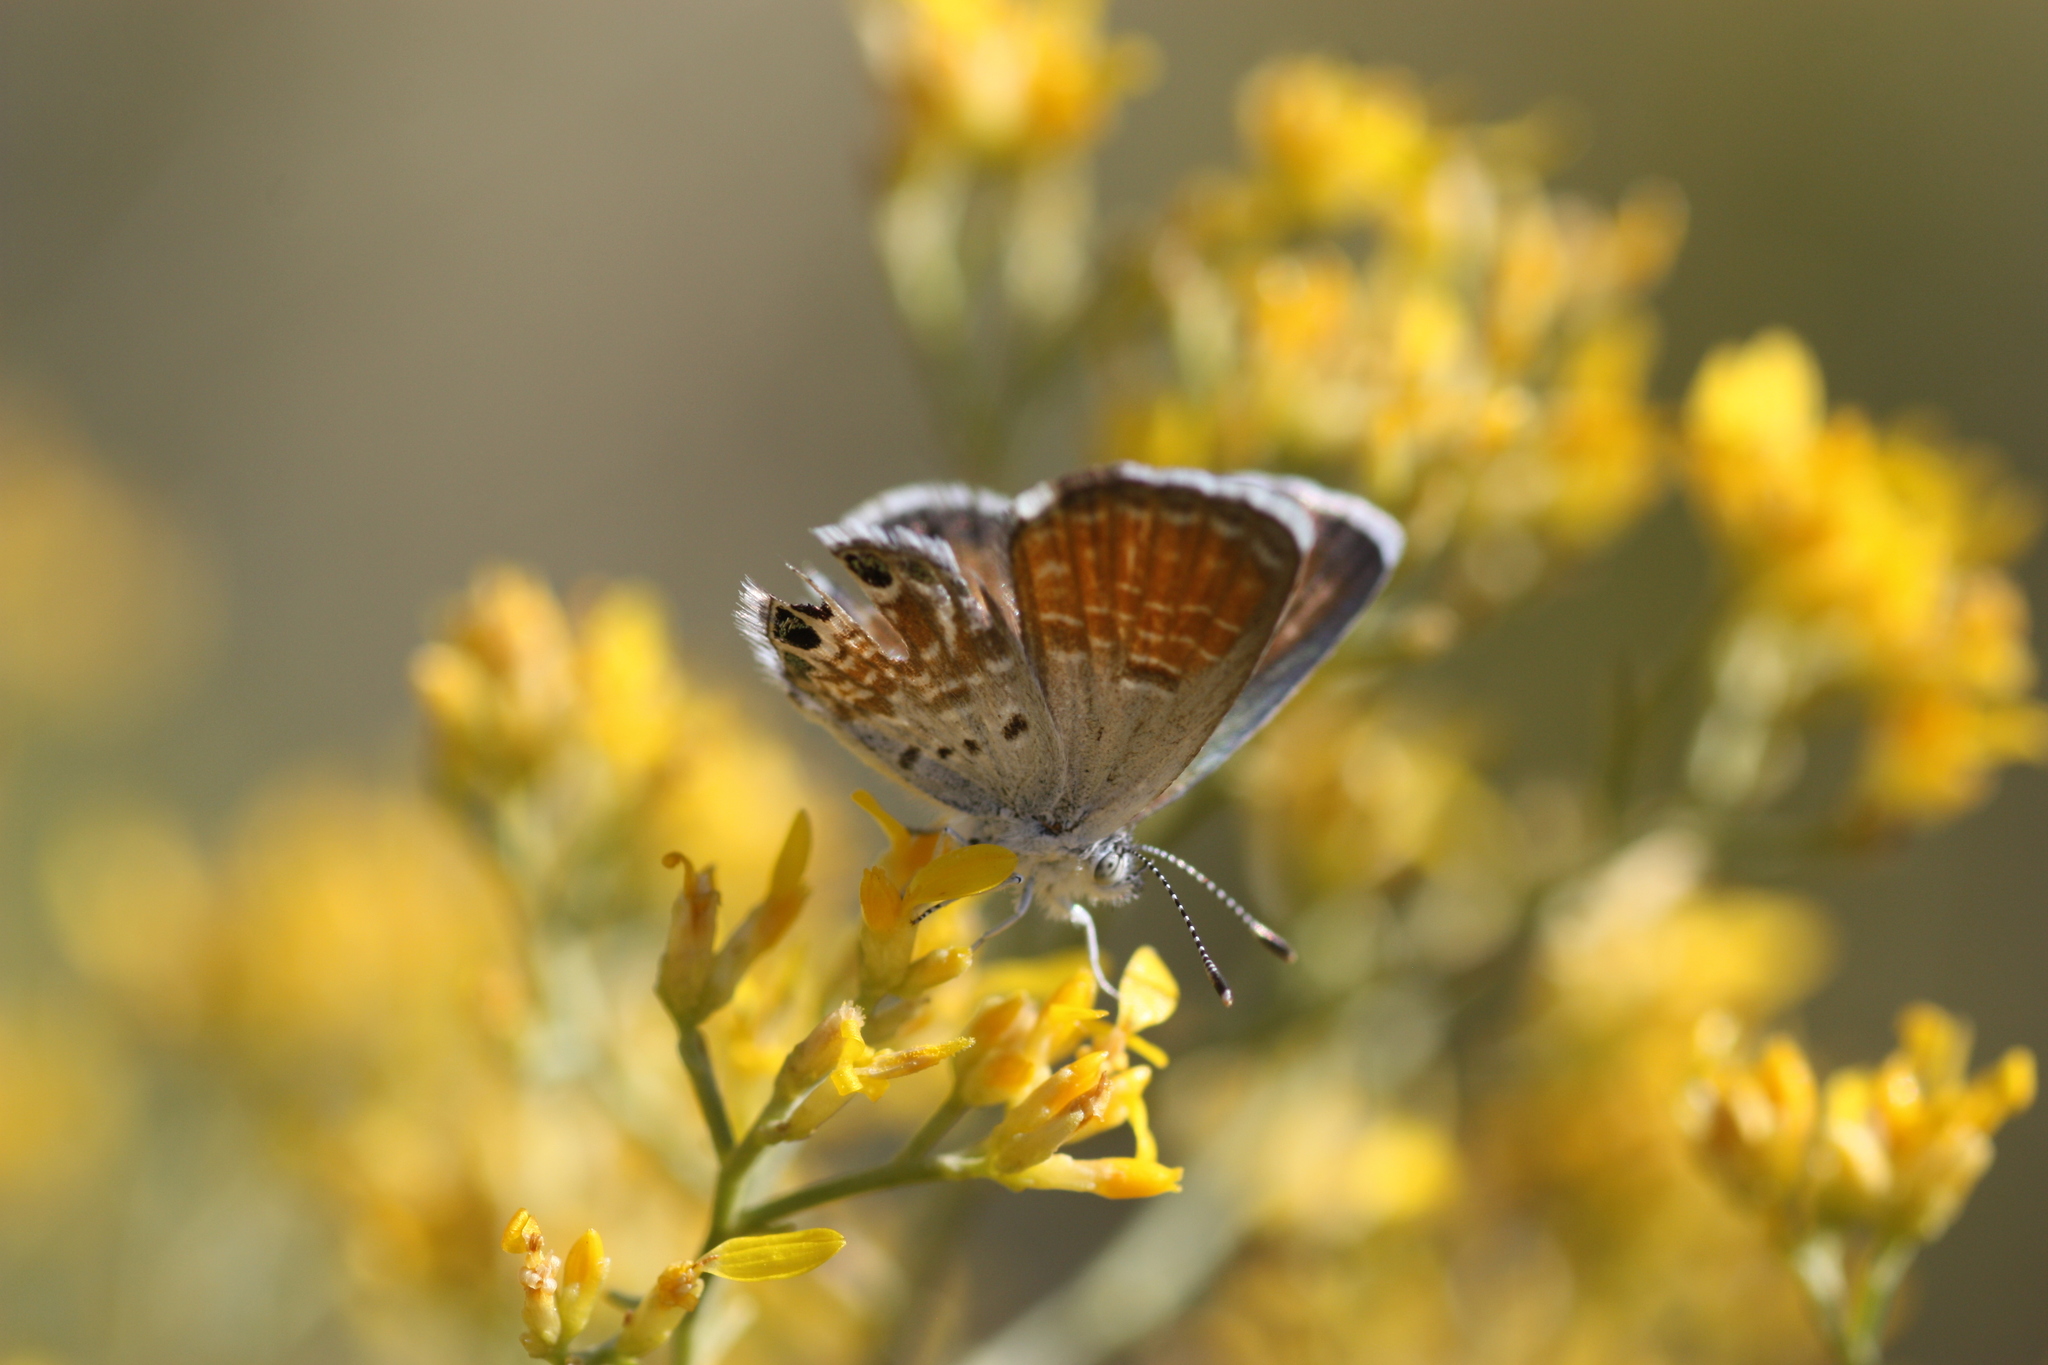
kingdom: Animalia
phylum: Arthropoda
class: Insecta
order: Lepidoptera
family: Lycaenidae
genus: Brephidium
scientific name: Brephidium exilis
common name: Pygmy blue
